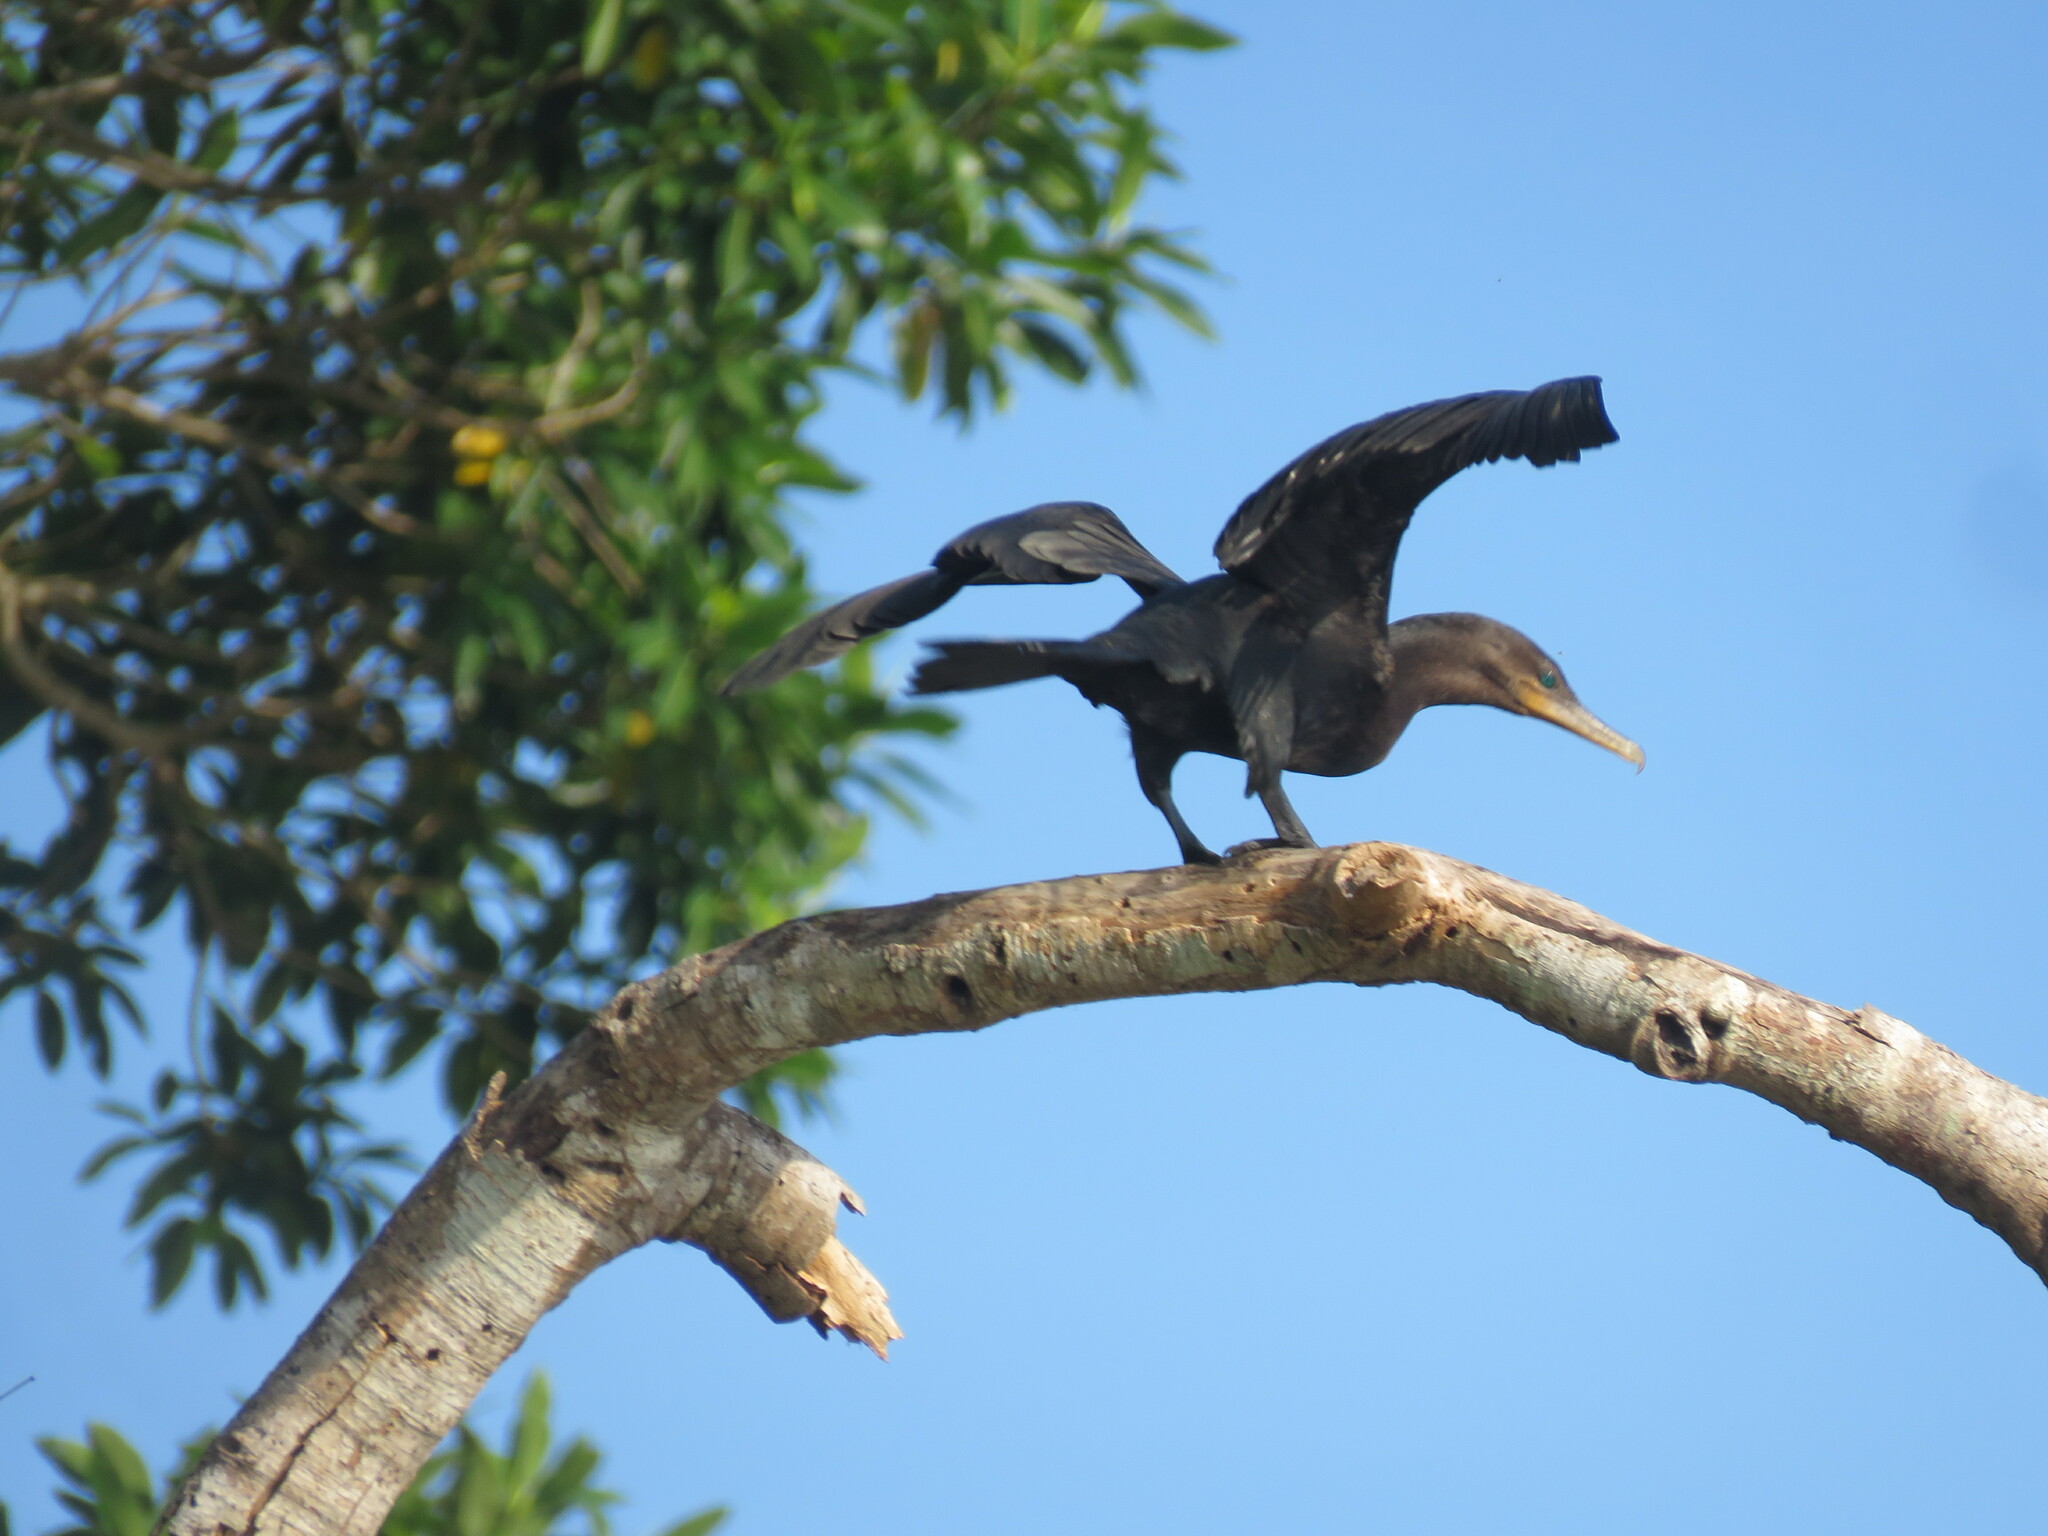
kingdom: Animalia
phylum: Chordata
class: Aves
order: Suliformes
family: Phalacrocoracidae
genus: Phalacrocorax
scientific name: Phalacrocorax brasilianus
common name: Neotropic cormorant
